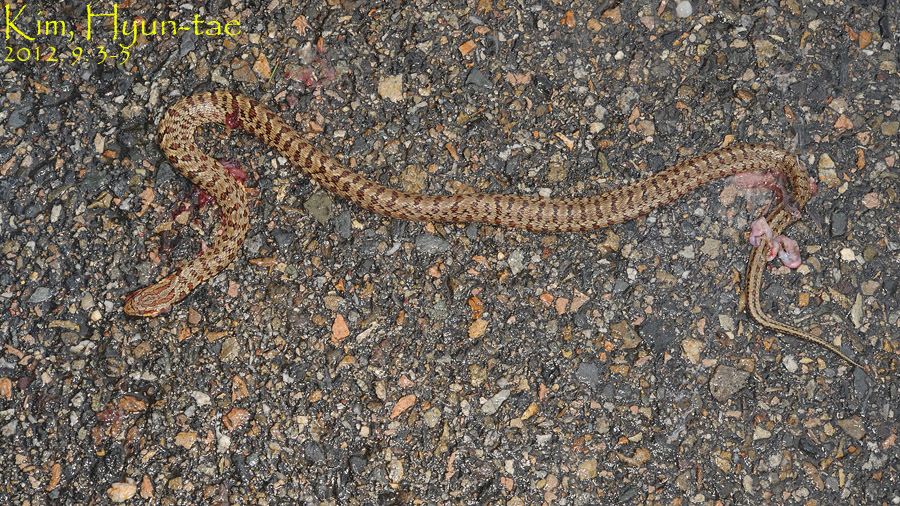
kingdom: Animalia
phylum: Chordata
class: Squamata
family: Colubridae
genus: Elaphe
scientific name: Elaphe dione
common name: Dione ratsnake
